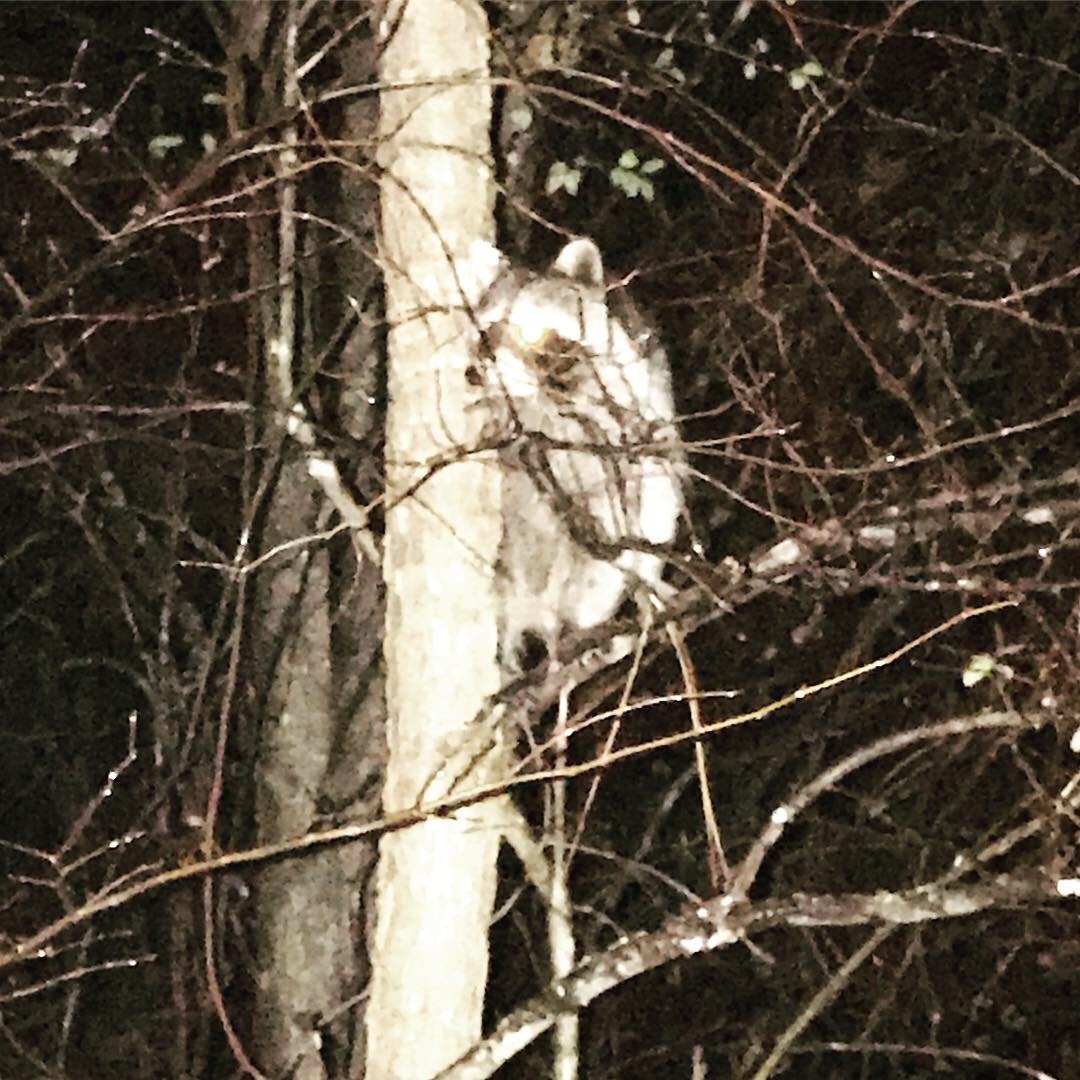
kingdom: Animalia
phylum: Chordata
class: Mammalia
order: Carnivora
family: Procyonidae
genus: Procyon
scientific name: Procyon lotor
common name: Raccoon
